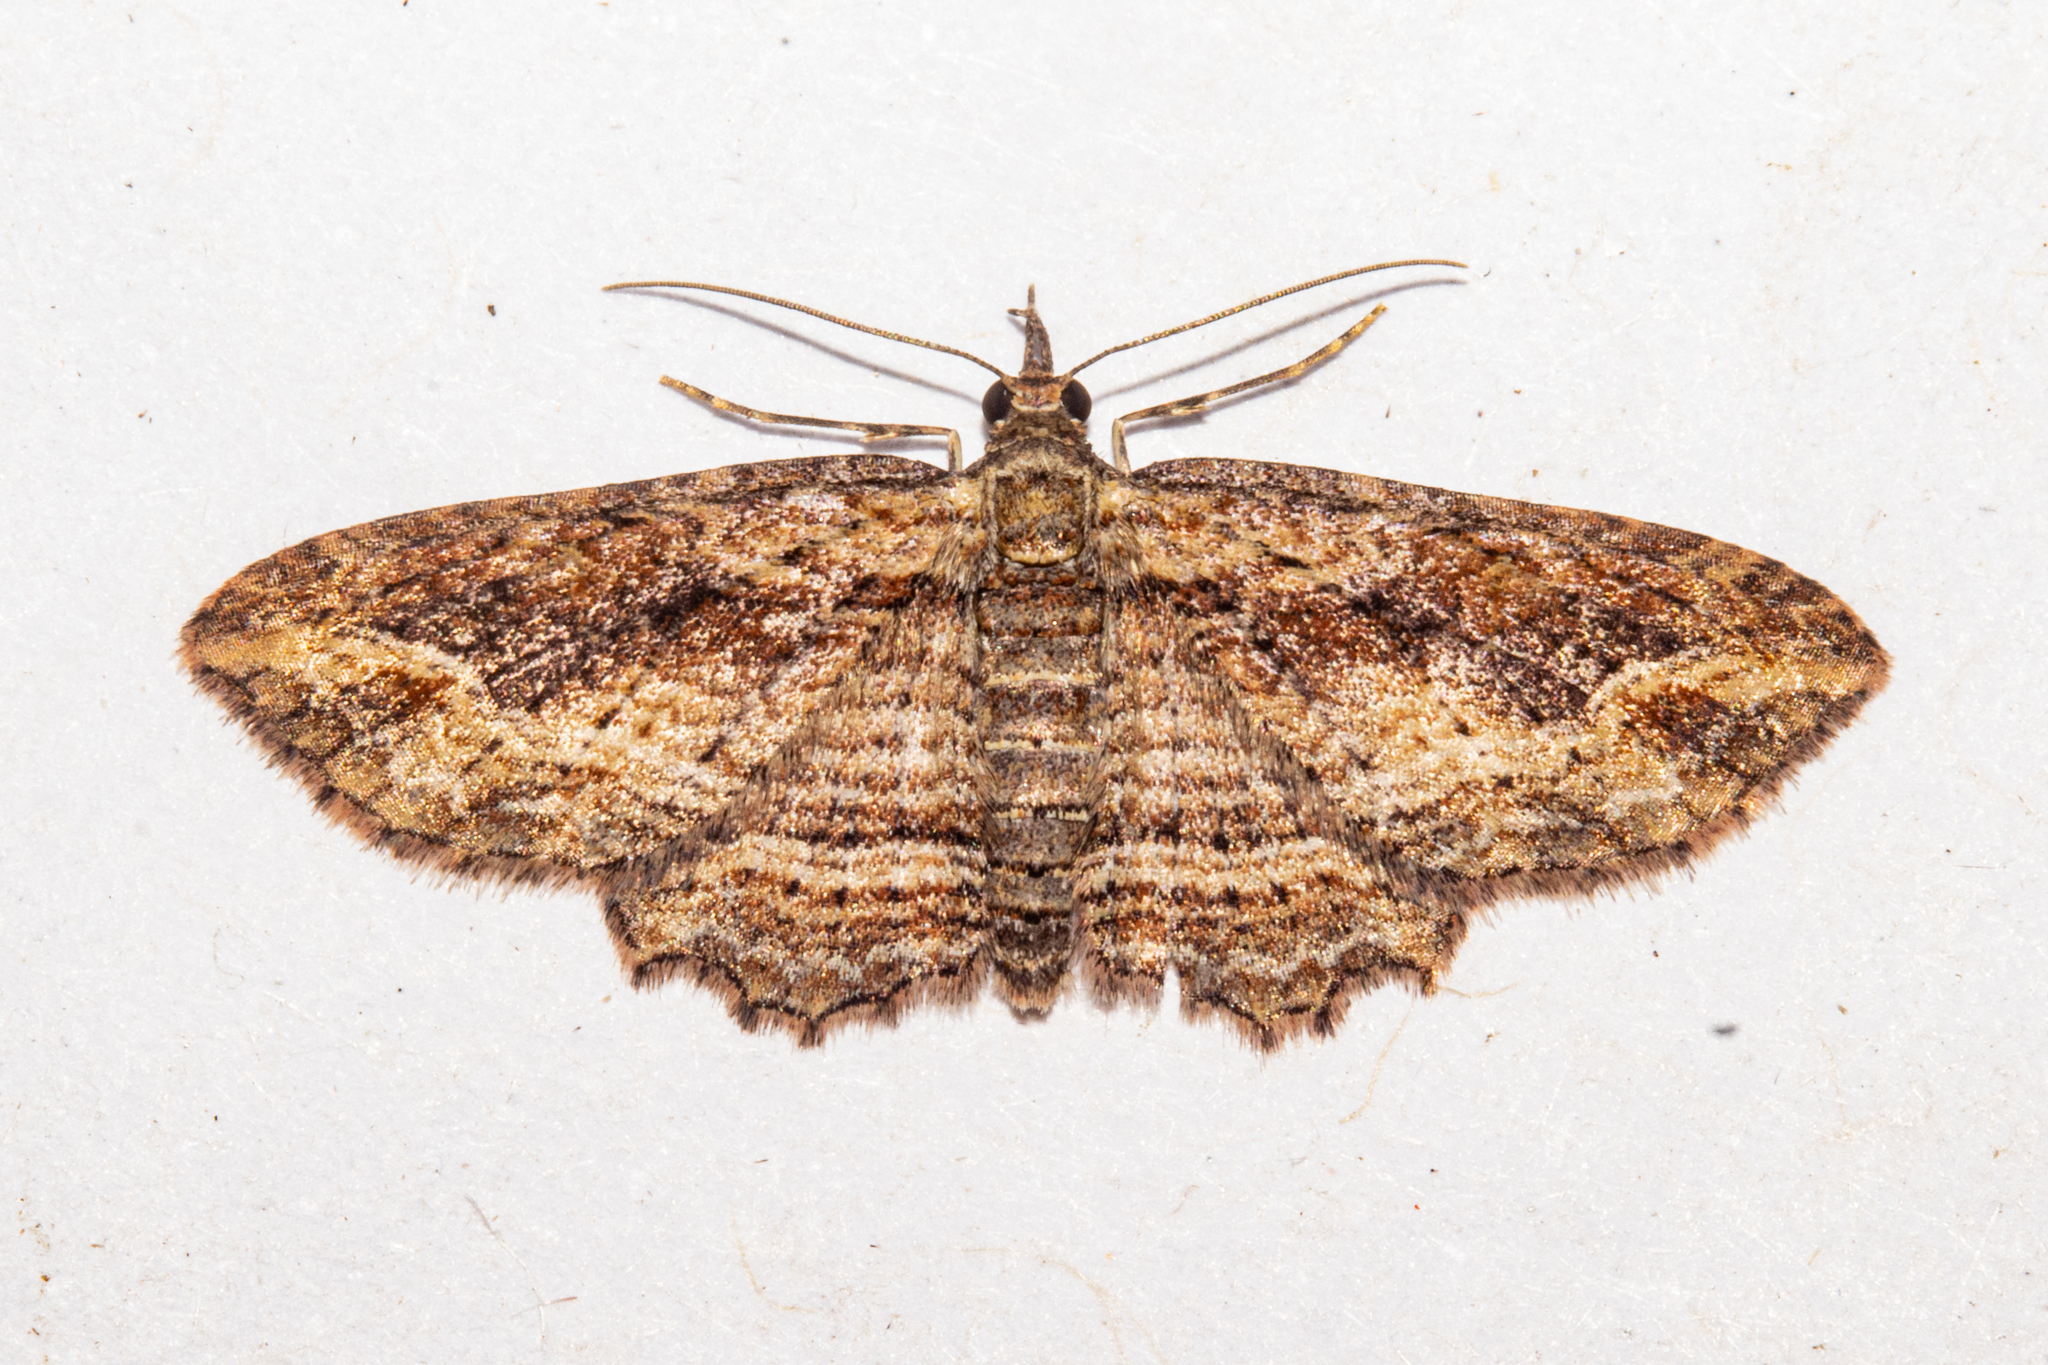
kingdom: Animalia
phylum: Arthropoda
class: Insecta
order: Lepidoptera
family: Geometridae
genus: Chloroclystis
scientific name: Chloroclystis filata
